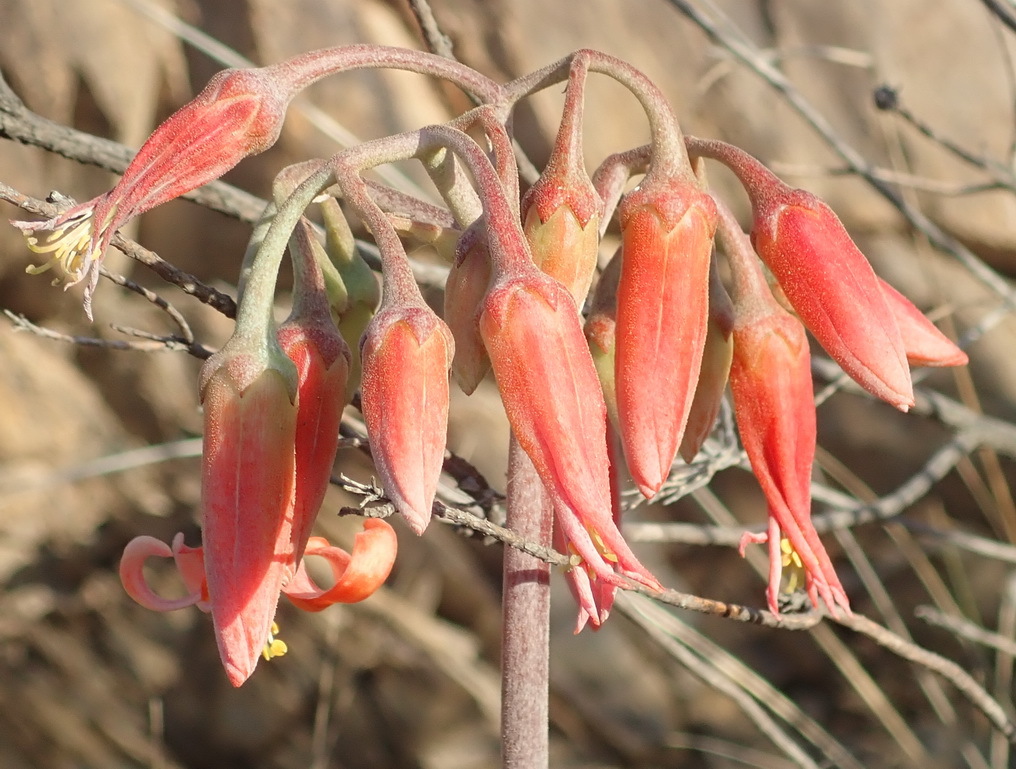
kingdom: Plantae
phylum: Tracheophyta
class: Magnoliopsida
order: Saxifragales
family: Crassulaceae
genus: Cotyledon
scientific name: Cotyledon orbiculata
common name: Pig's ear
